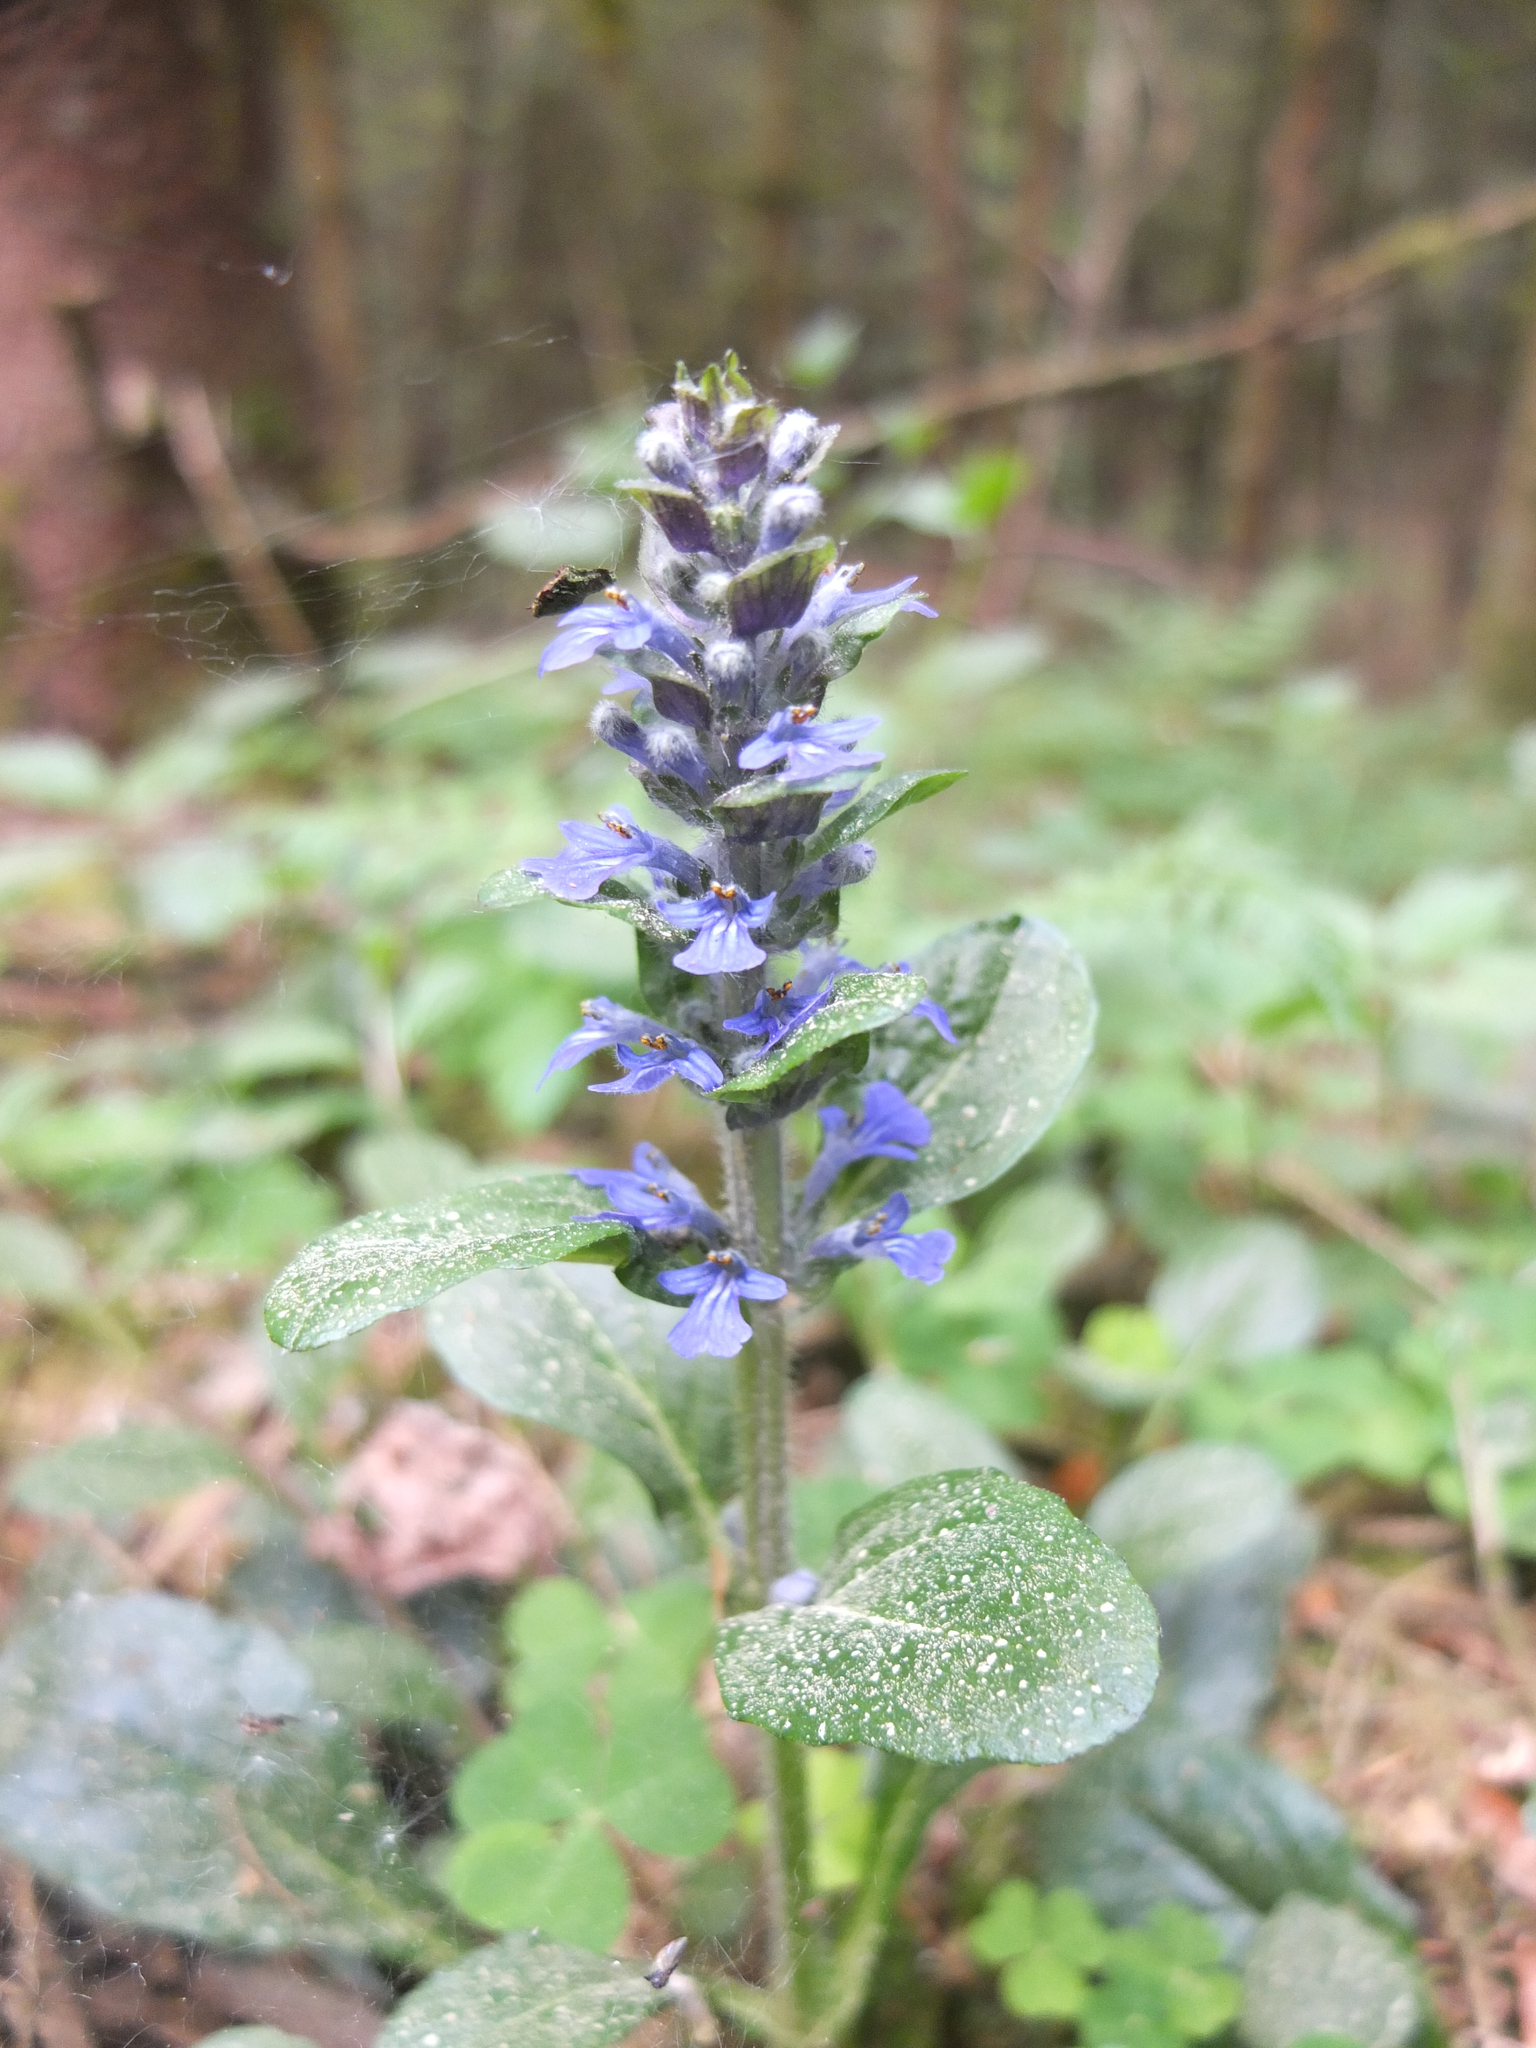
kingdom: Plantae
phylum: Tracheophyta
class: Magnoliopsida
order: Lamiales
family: Lamiaceae
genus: Ajuga
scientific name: Ajuga reptans
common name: Bugle
